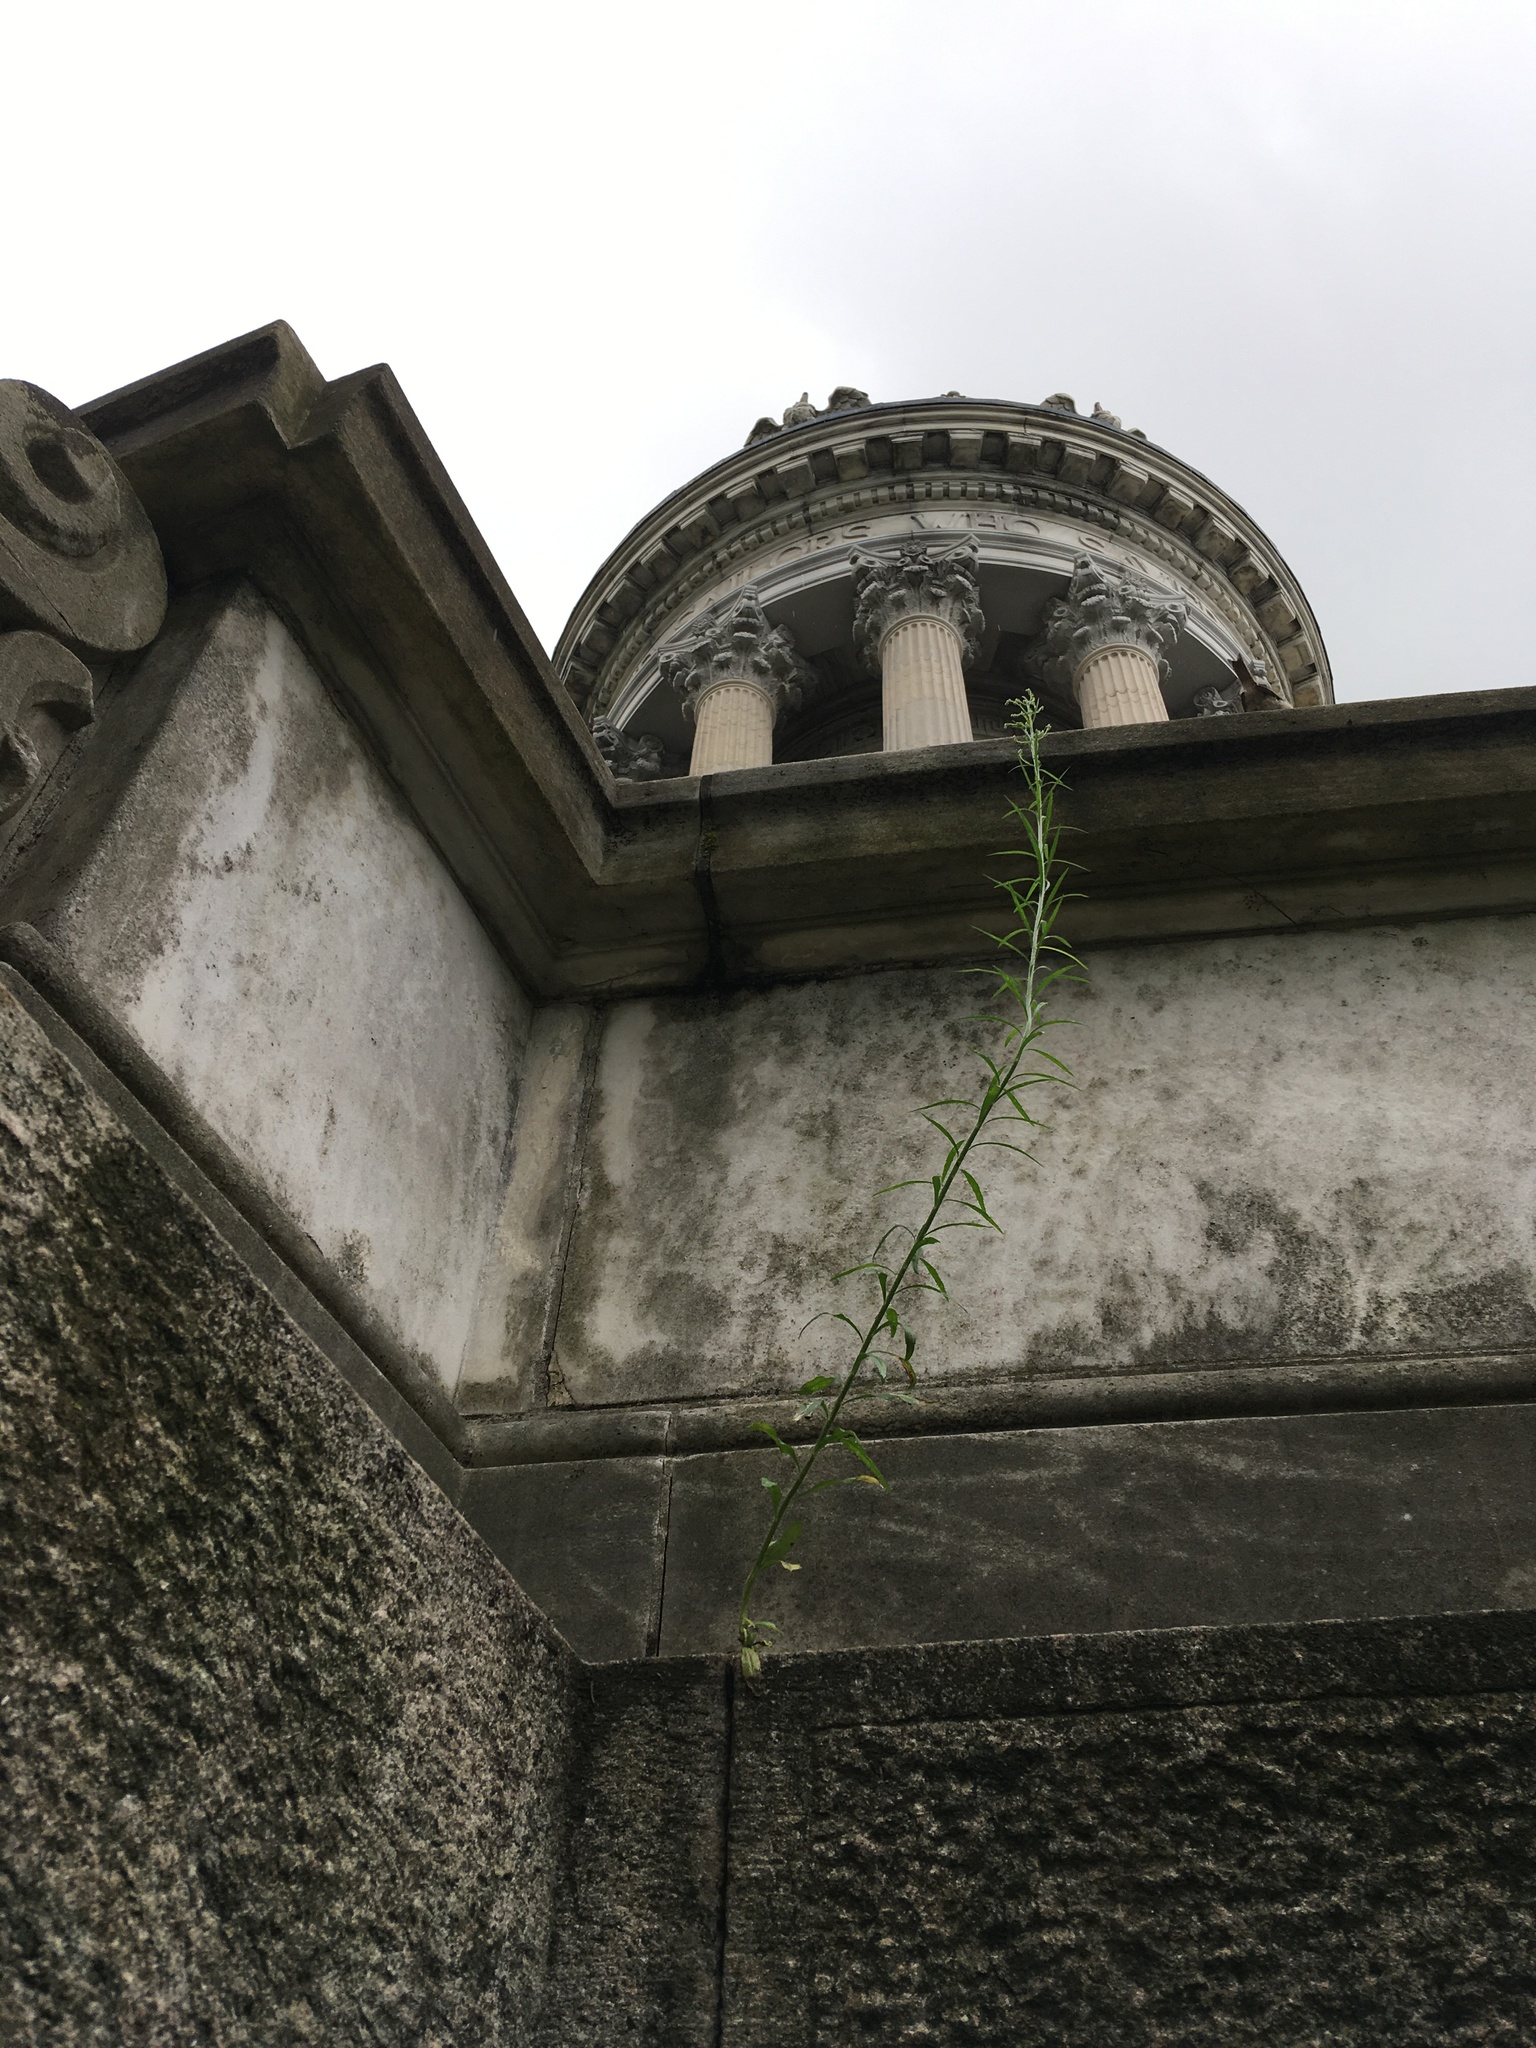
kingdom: Plantae
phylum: Tracheophyta
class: Magnoliopsida
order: Asterales
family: Asteraceae
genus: Erigeron
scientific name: Erigeron canadensis
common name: Canadian fleabane
